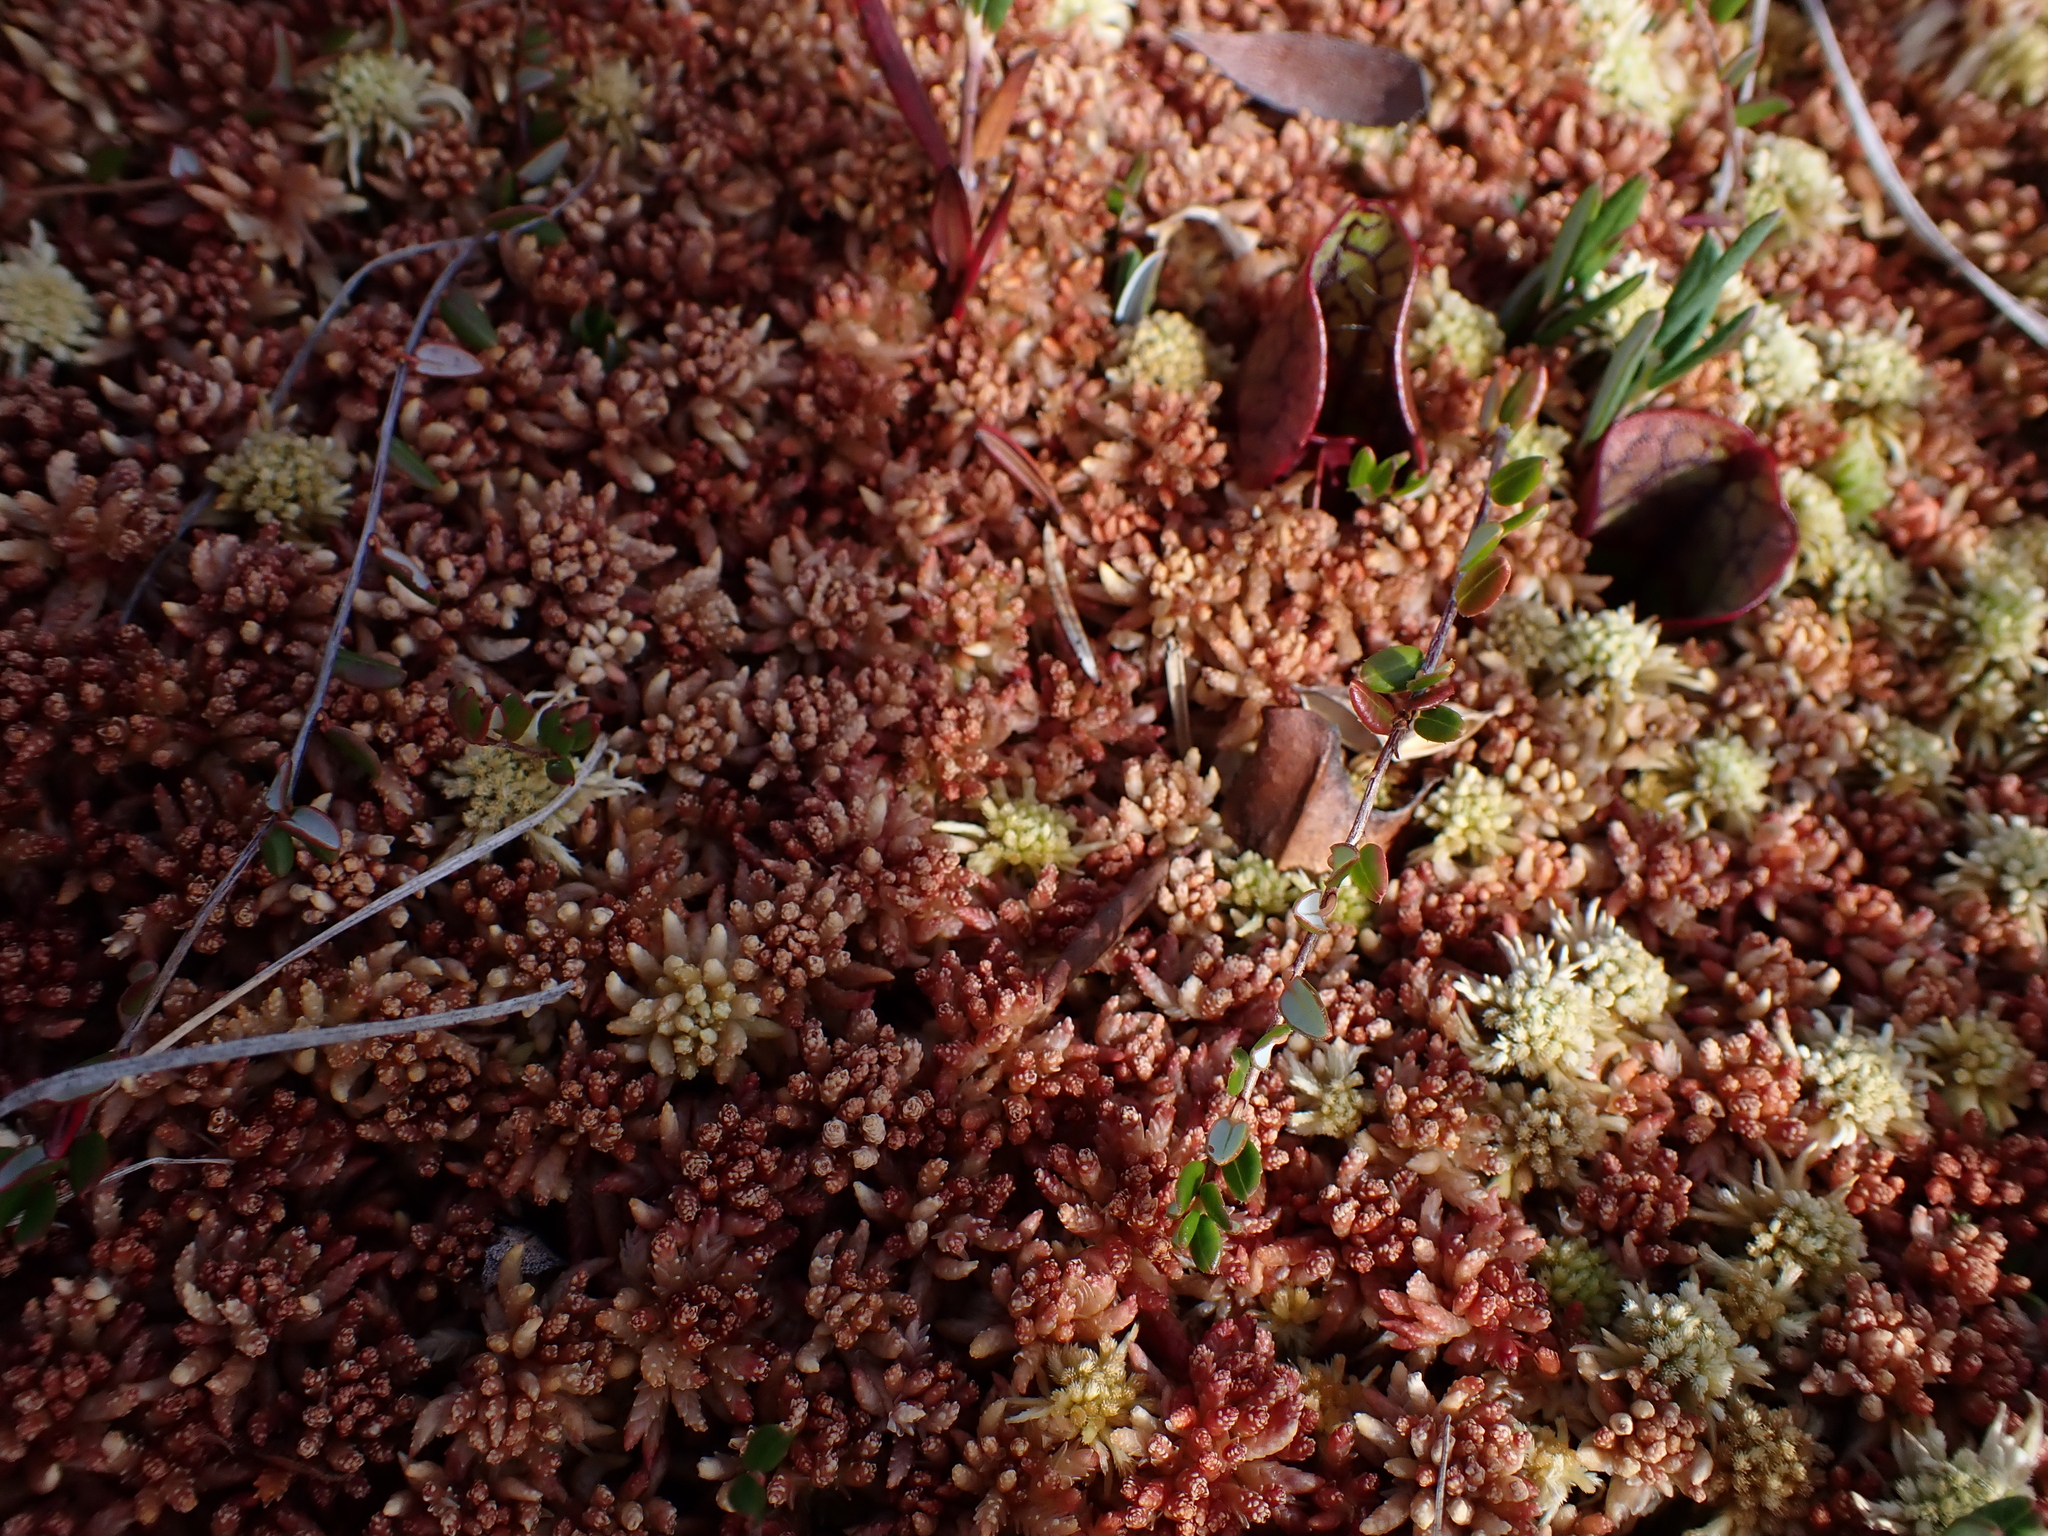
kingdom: Plantae
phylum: Tracheophyta
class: Magnoliopsida
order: Ericales
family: Ericaceae
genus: Vaccinium
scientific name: Vaccinium oxycoccos
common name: Cranberry
